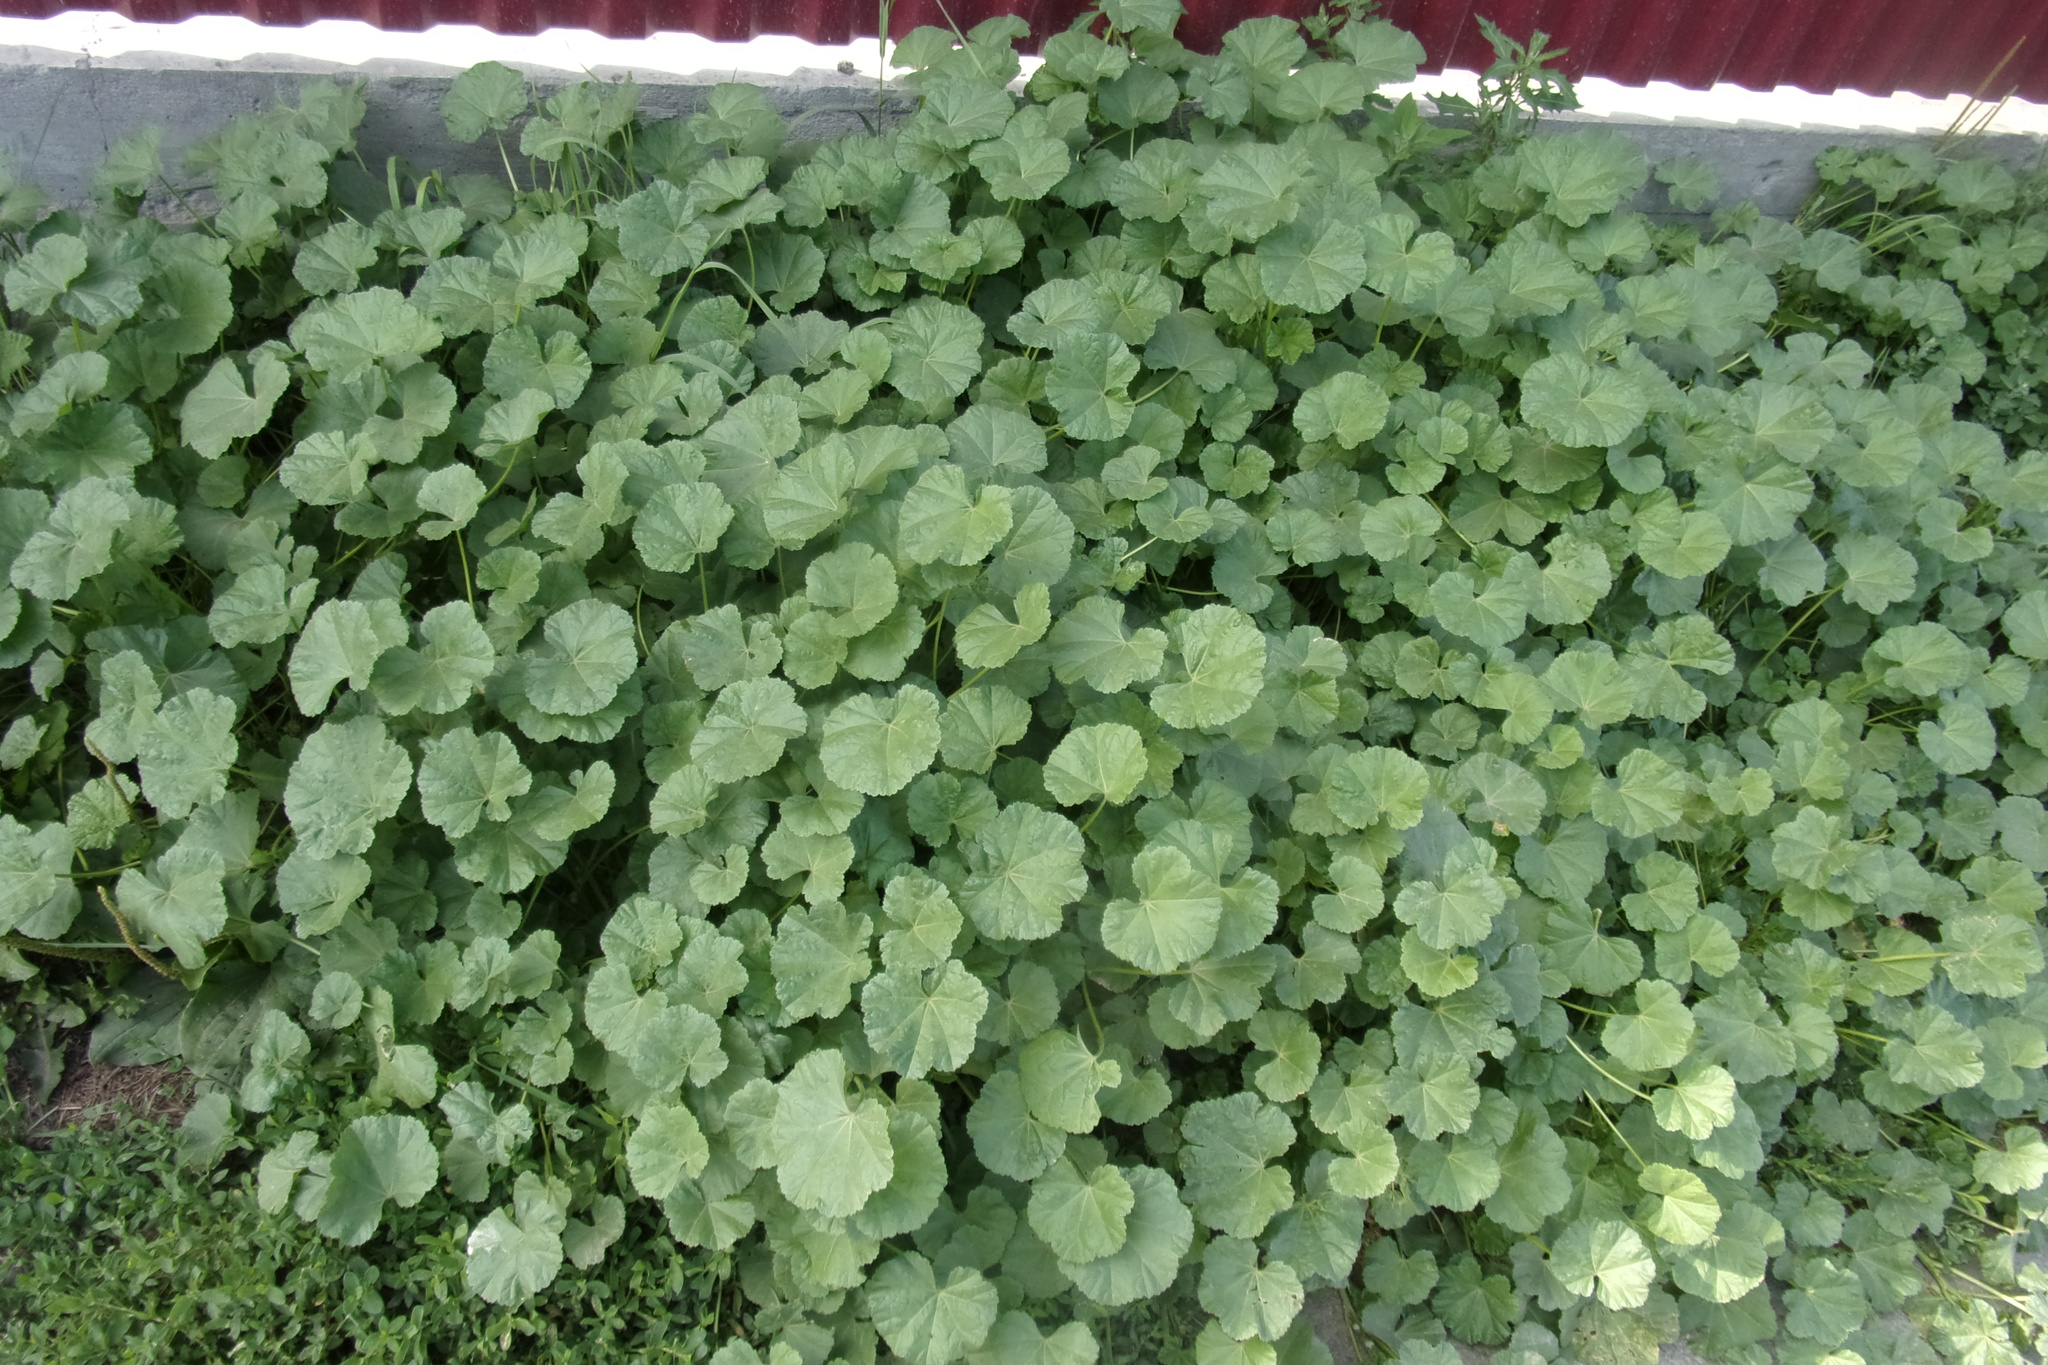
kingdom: Plantae
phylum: Tracheophyta
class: Magnoliopsida
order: Malvales
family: Malvaceae
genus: Malva
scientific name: Malva pusilla
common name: Small mallow
